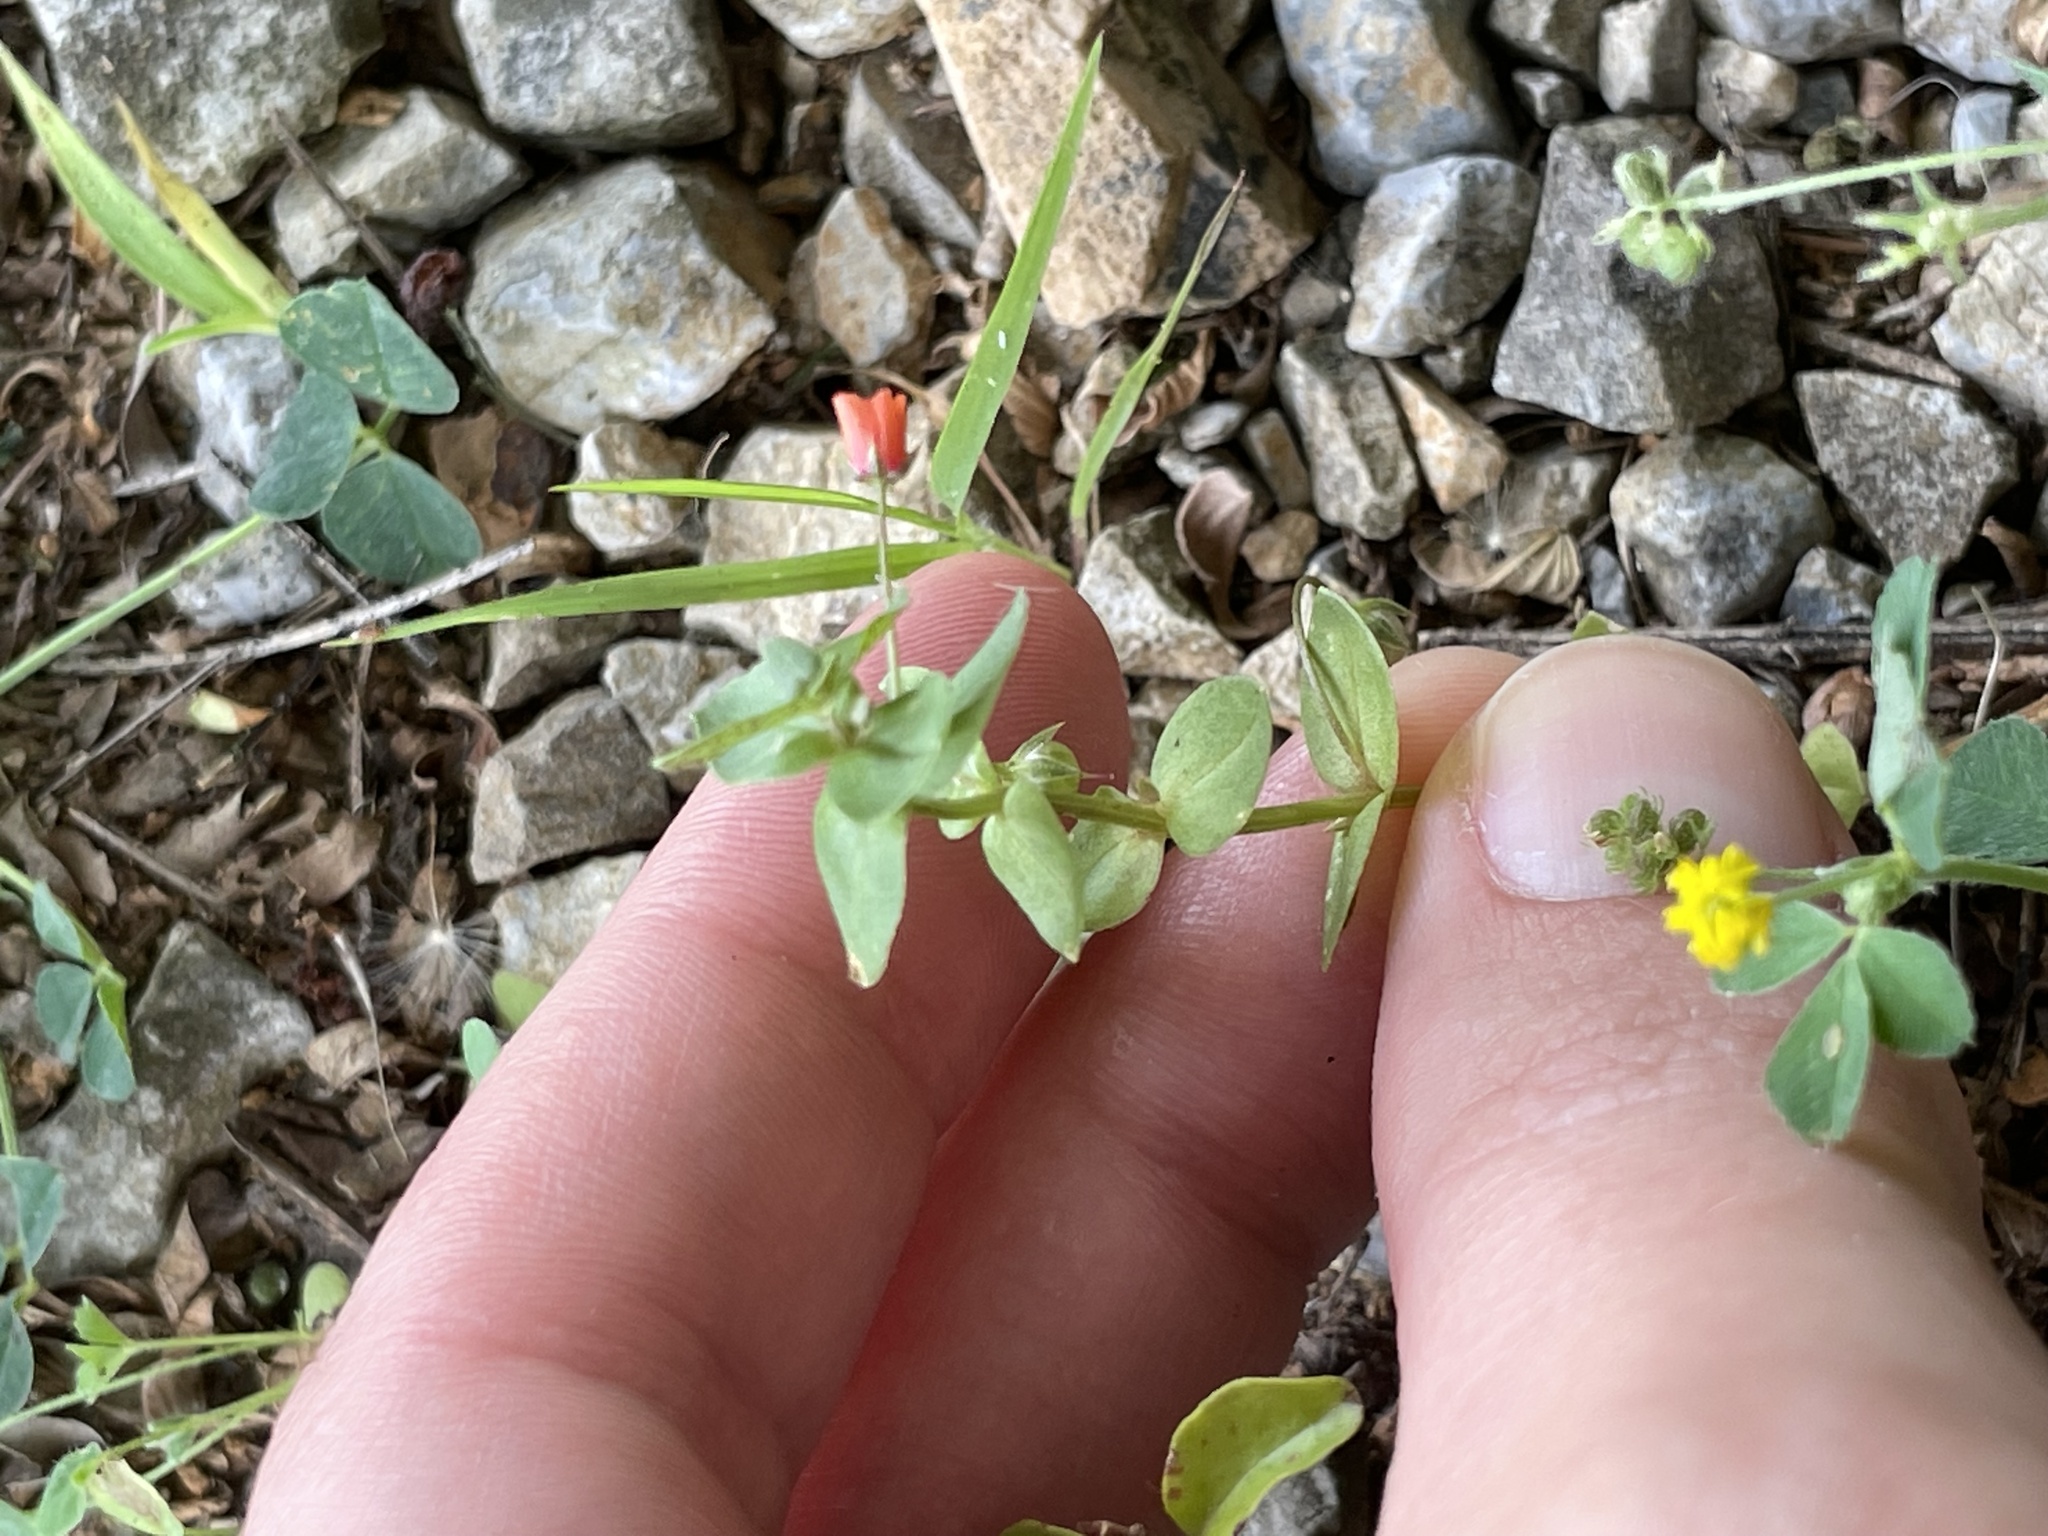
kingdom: Plantae
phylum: Tracheophyta
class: Magnoliopsida
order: Ericales
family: Primulaceae
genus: Lysimachia
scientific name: Lysimachia arvensis
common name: Scarlet pimpernel
